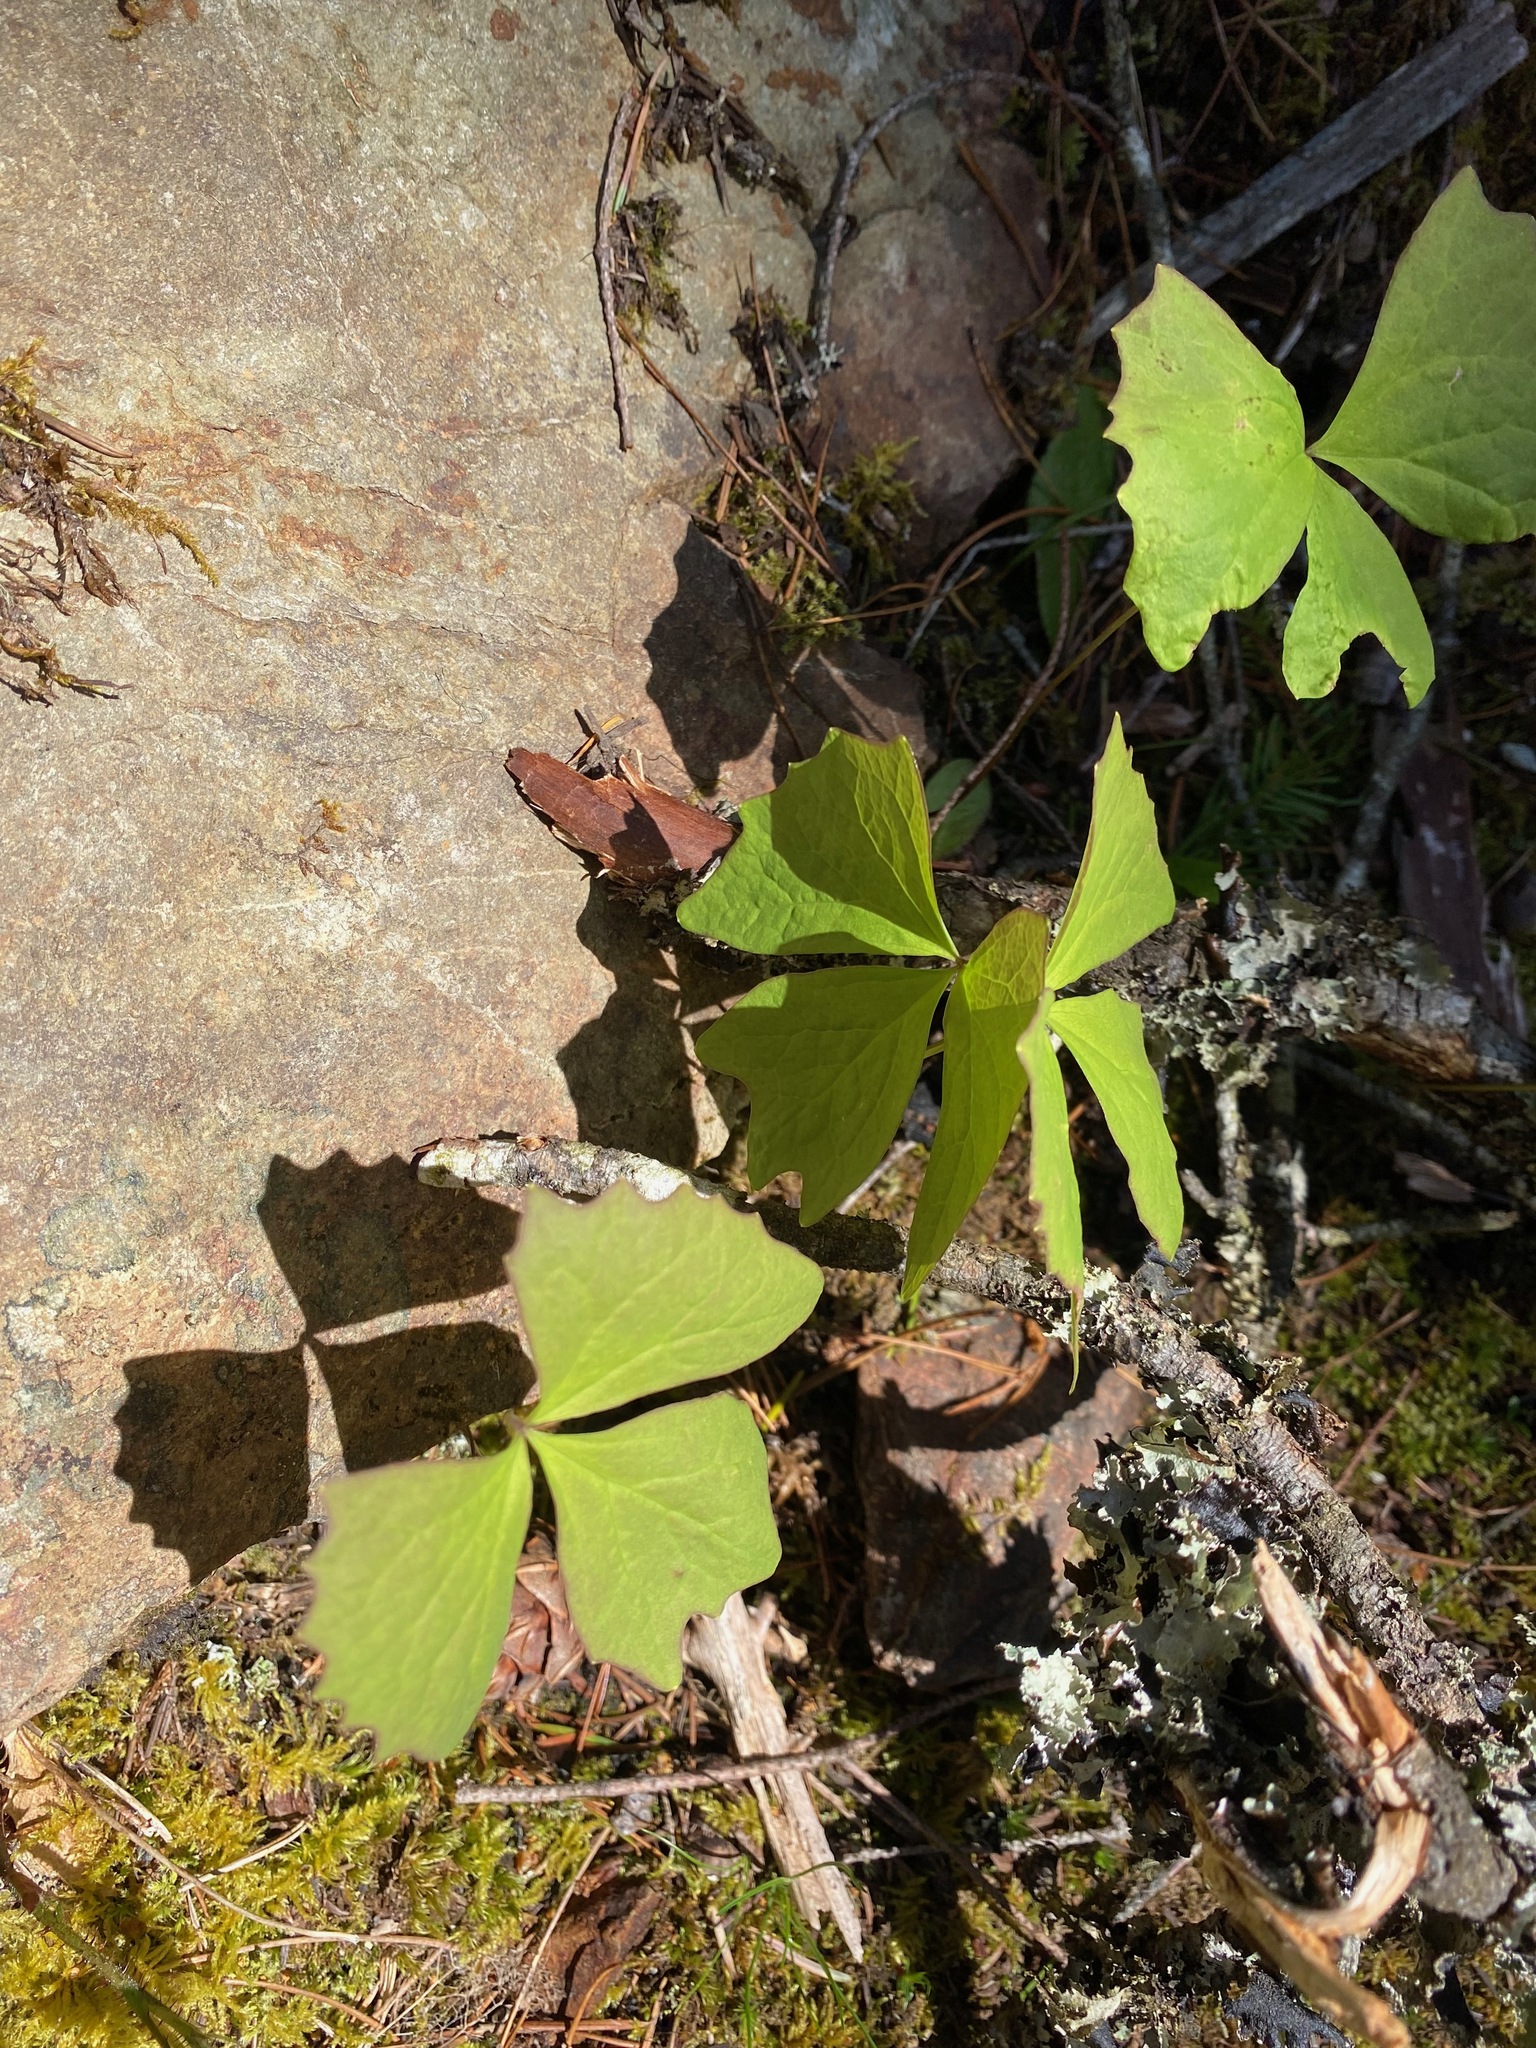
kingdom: Plantae
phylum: Tracheophyta
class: Magnoliopsida
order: Ranunculales
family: Berberidaceae
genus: Achlys
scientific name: Achlys triphylla
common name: Vanilla-leaf
